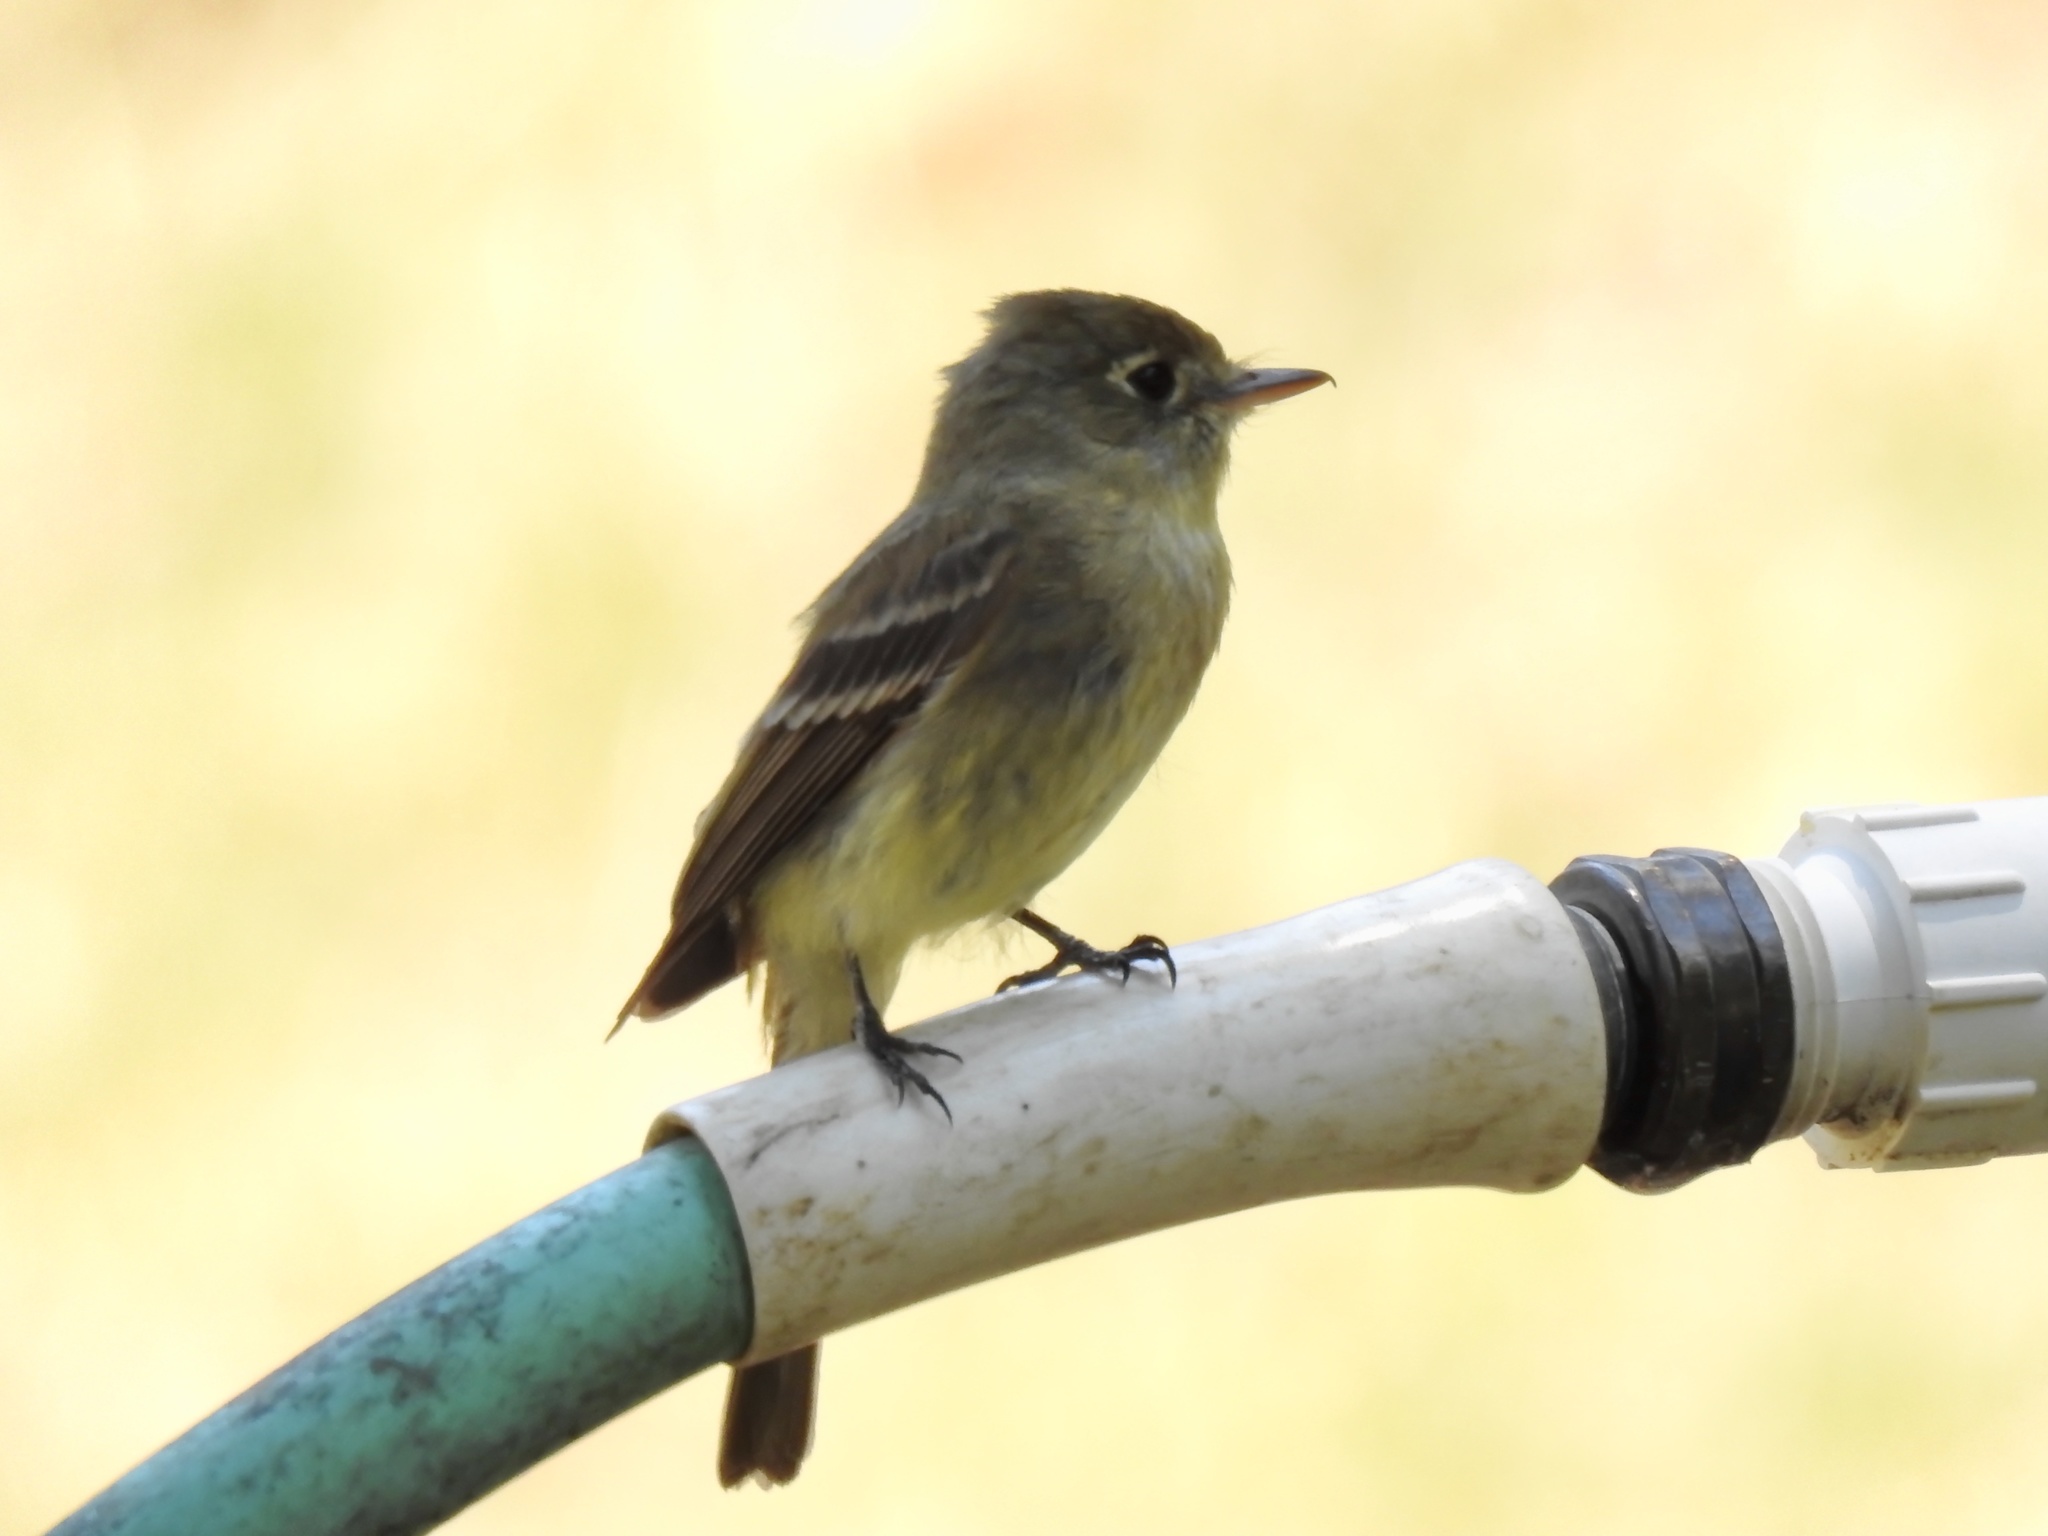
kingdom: Animalia
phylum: Chordata
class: Aves
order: Passeriformes
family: Tyrannidae
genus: Empidonax
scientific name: Empidonax difficilis
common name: Pacific-slope flycatcher
